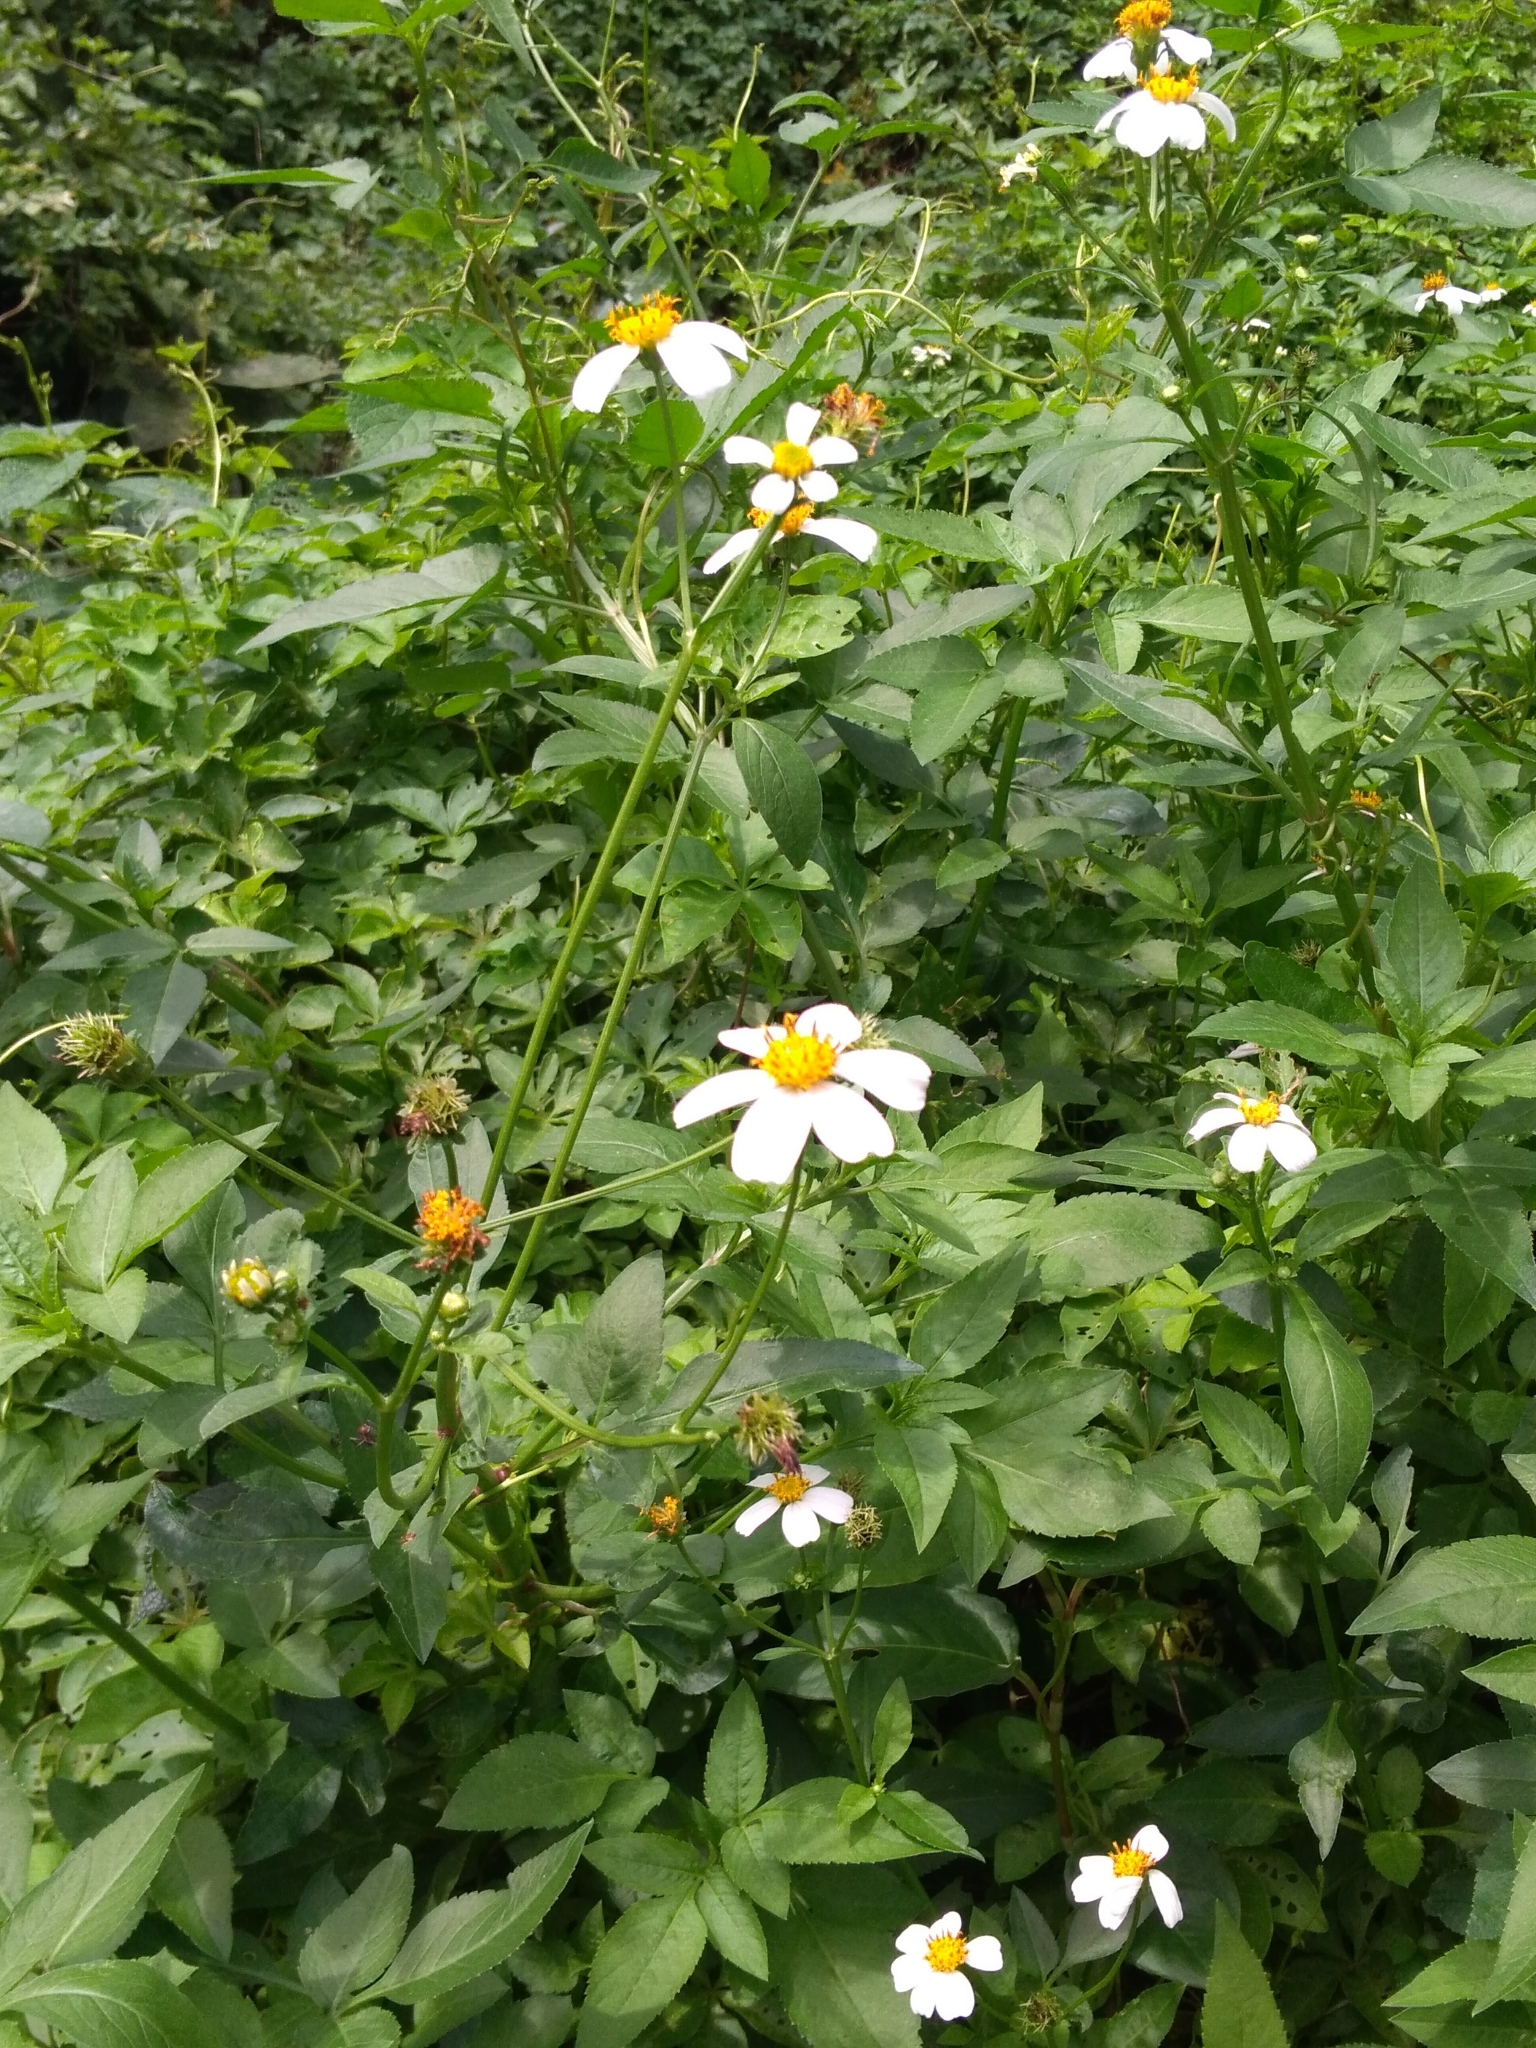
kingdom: Plantae
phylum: Tracheophyta
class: Magnoliopsida
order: Asterales
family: Asteraceae
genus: Bidens
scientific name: Bidens alba
